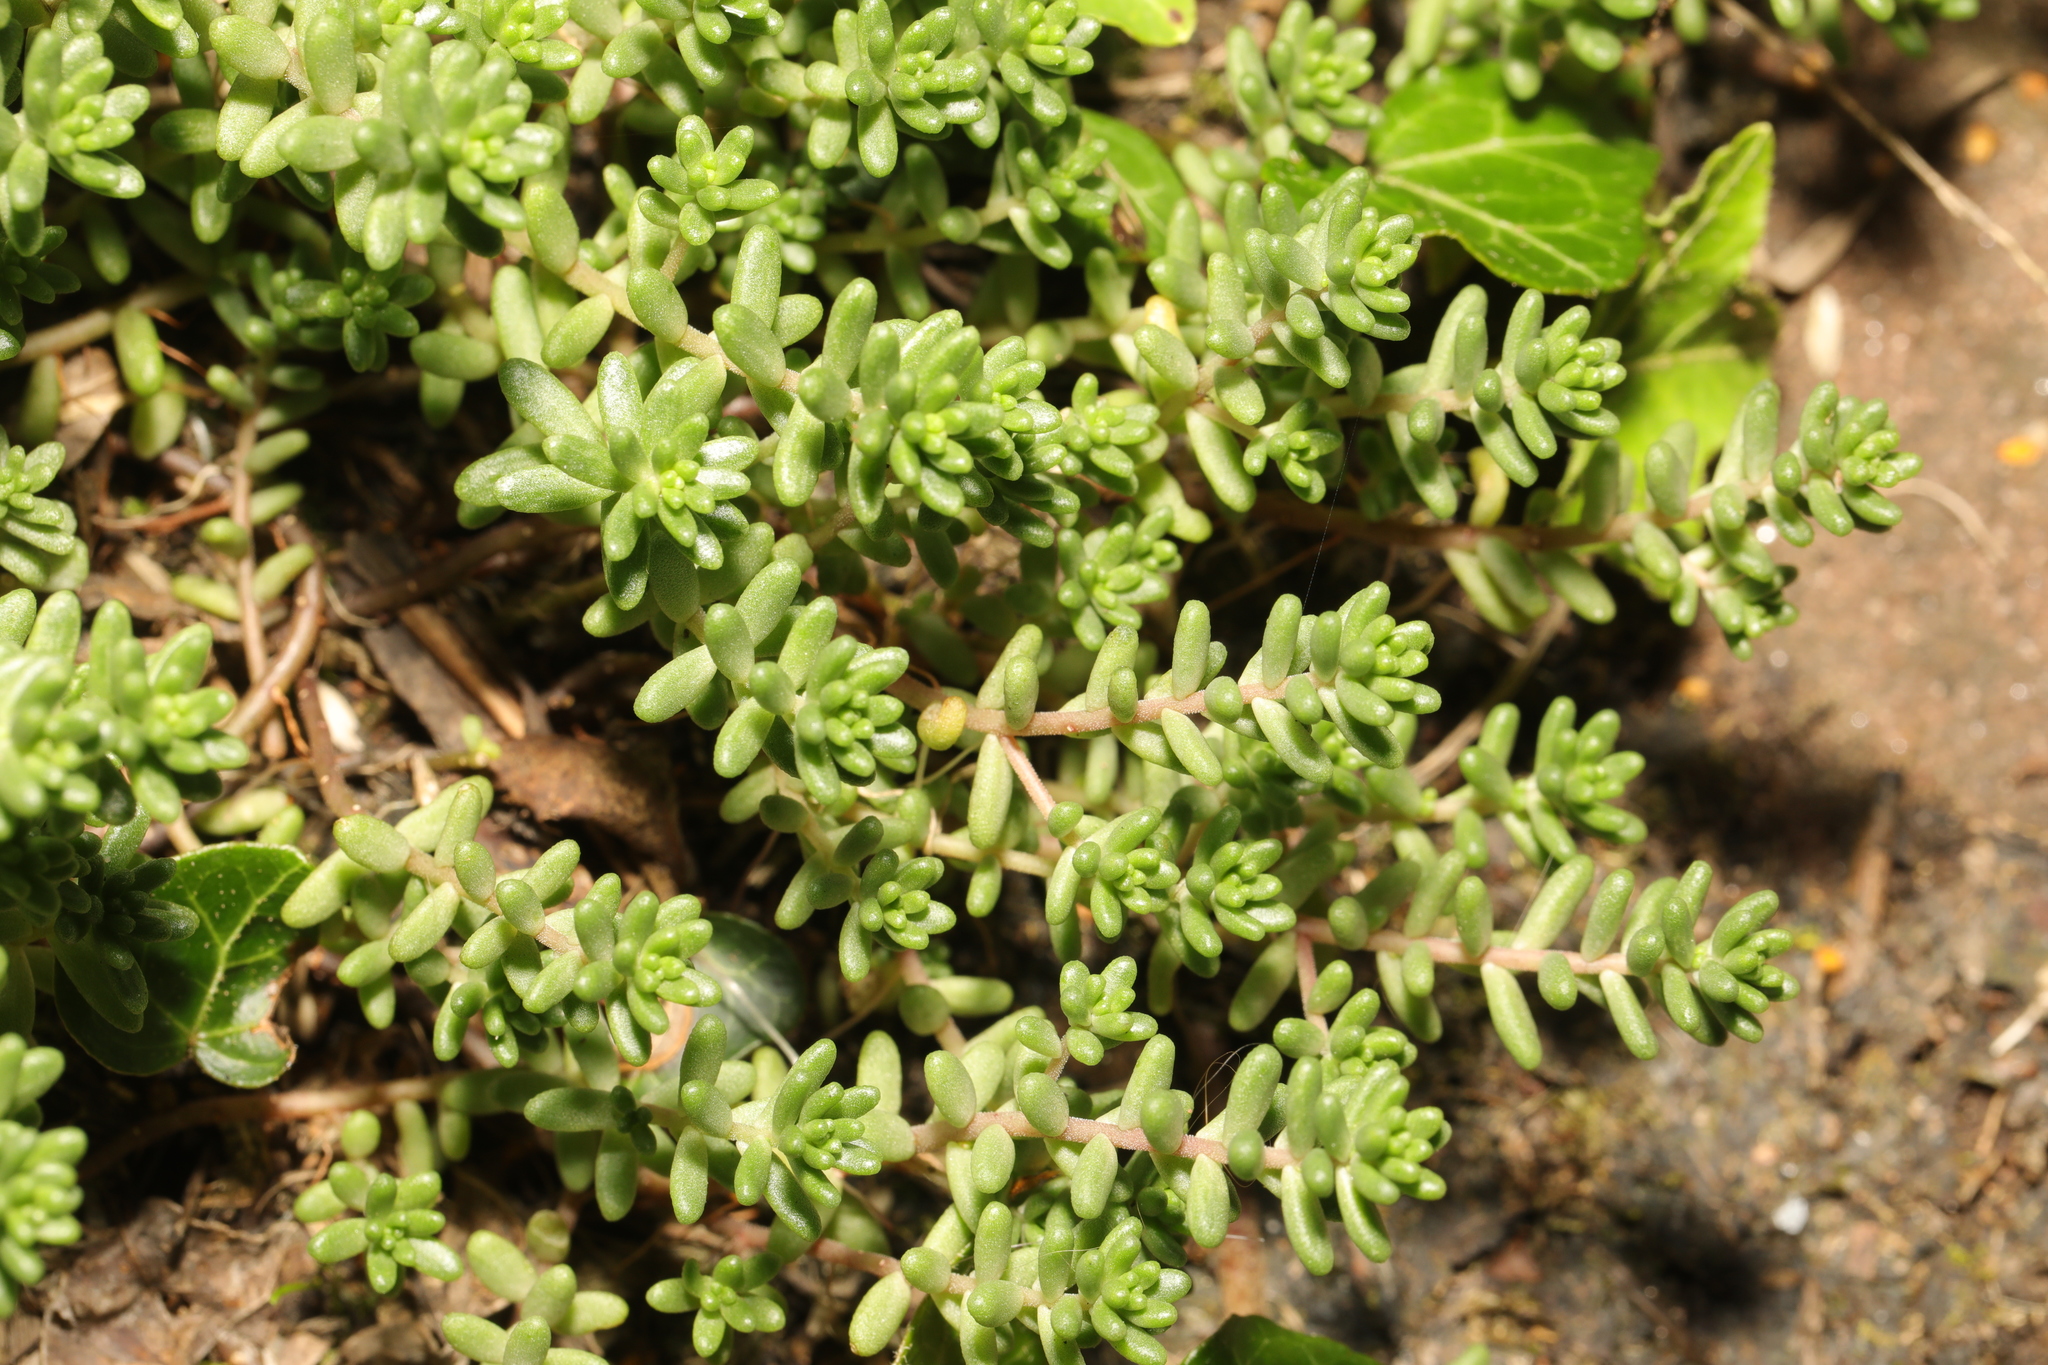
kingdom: Plantae
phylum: Tracheophyta
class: Magnoliopsida
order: Saxifragales
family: Crassulaceae
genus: Sedum
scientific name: Sedum album
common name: White stonecrop
